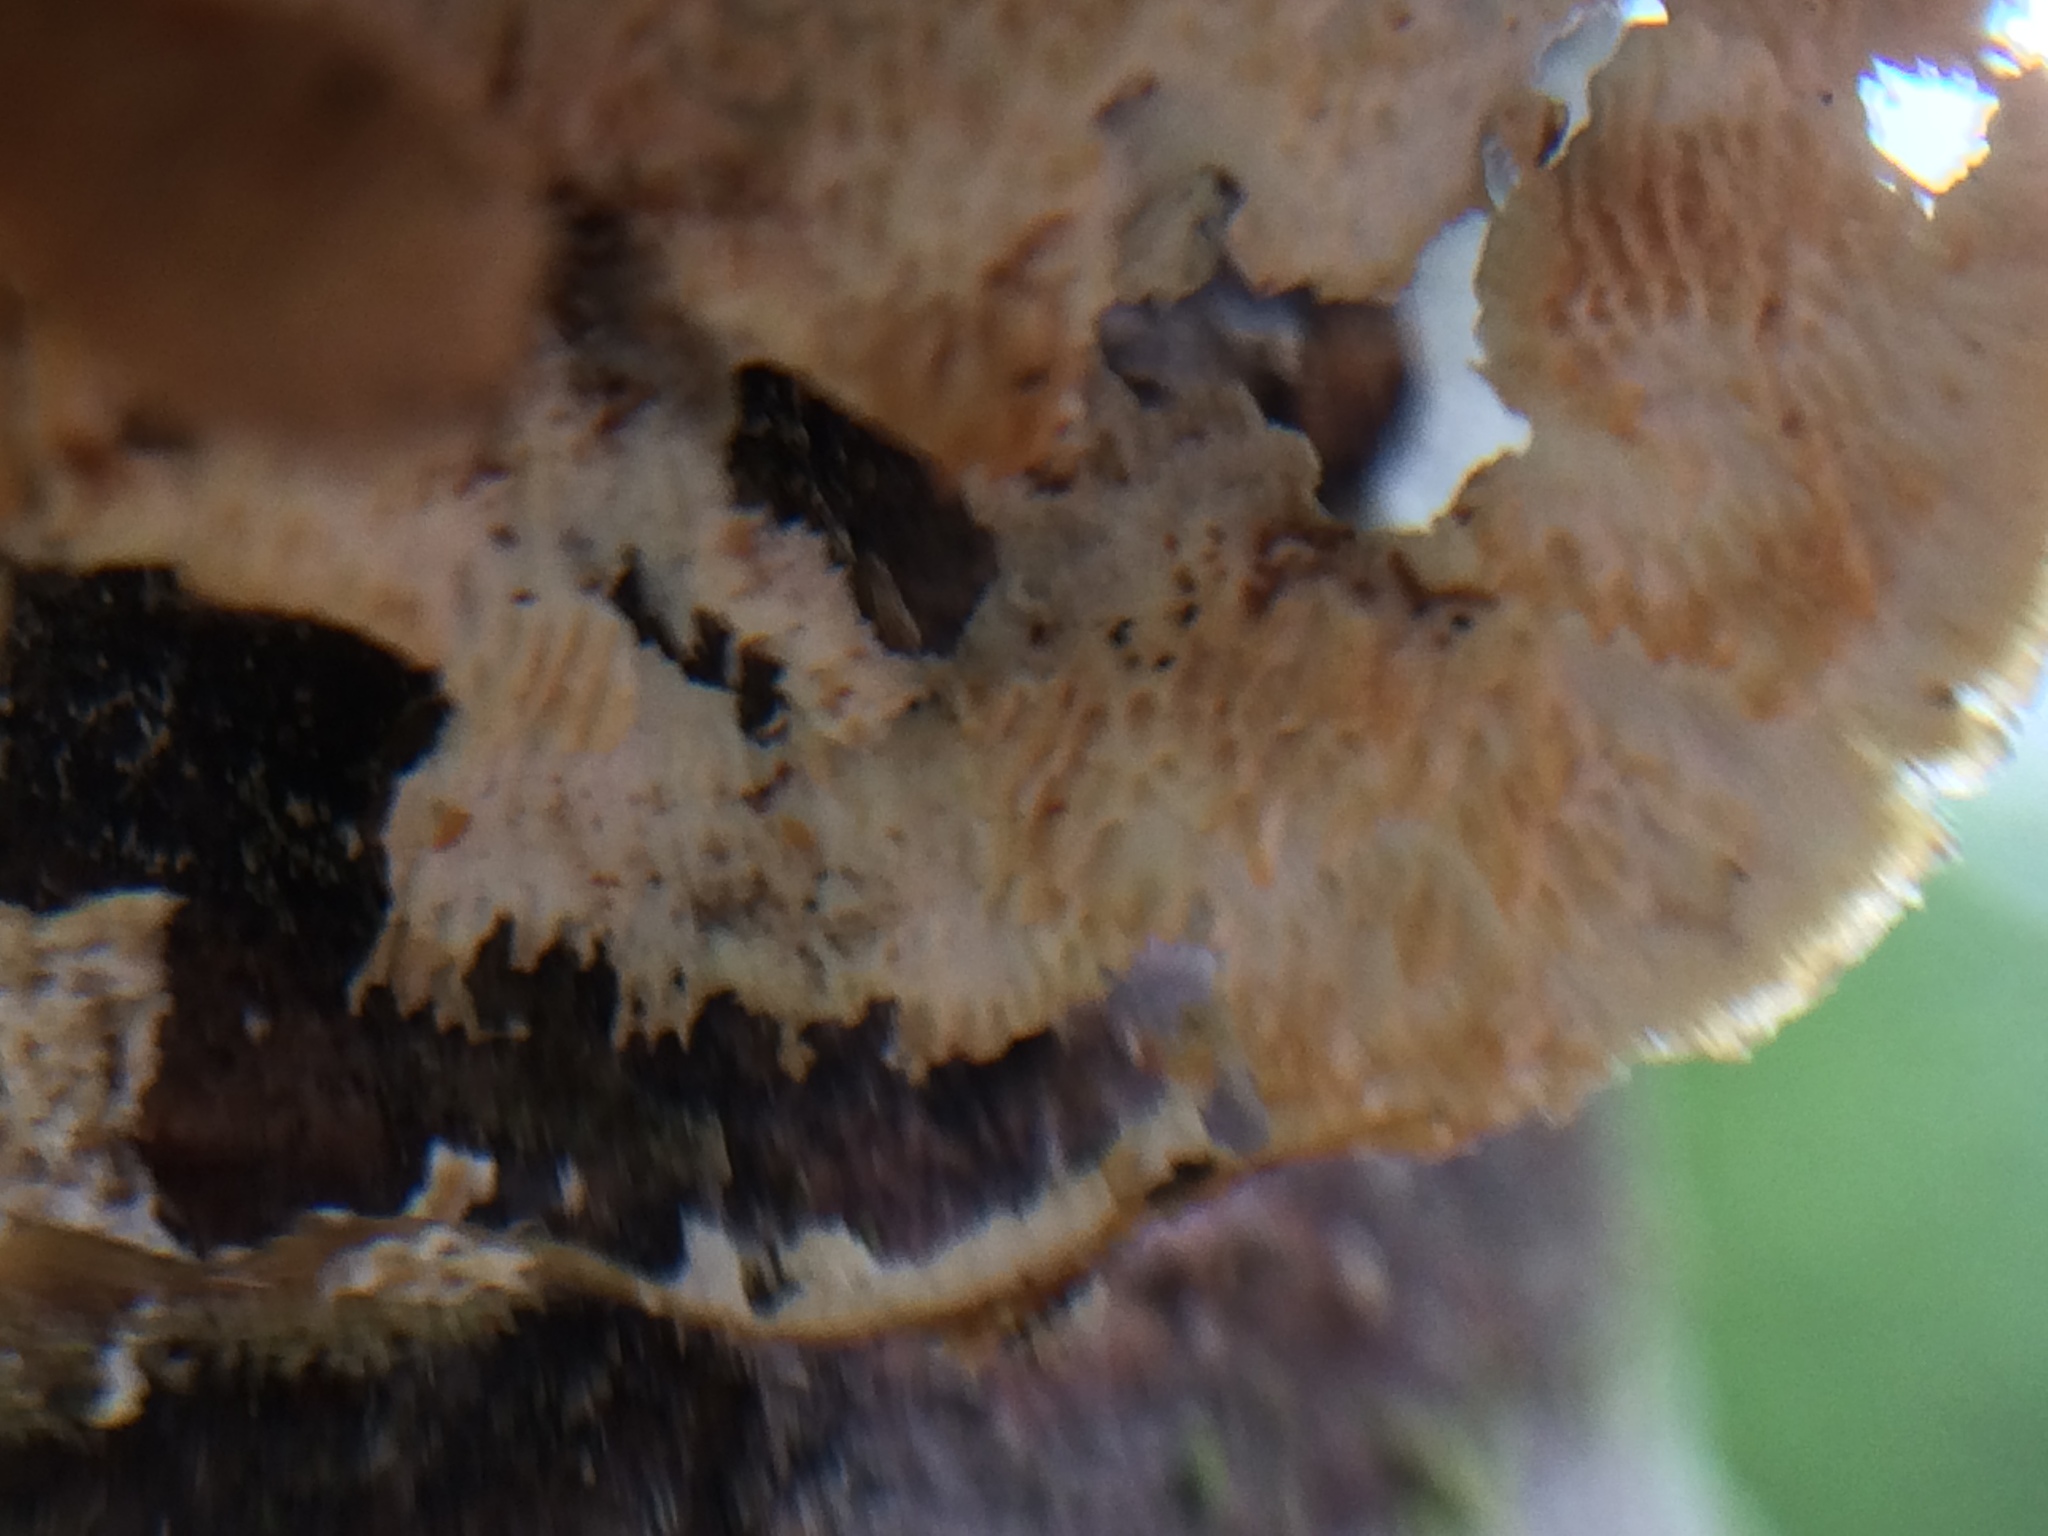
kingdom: Fungi
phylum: Basidiomycota
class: Agaricomycetes
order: Polyporales
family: Polyporaceae
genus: Trametes
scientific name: Trametes versicolor
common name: Turkeytail
